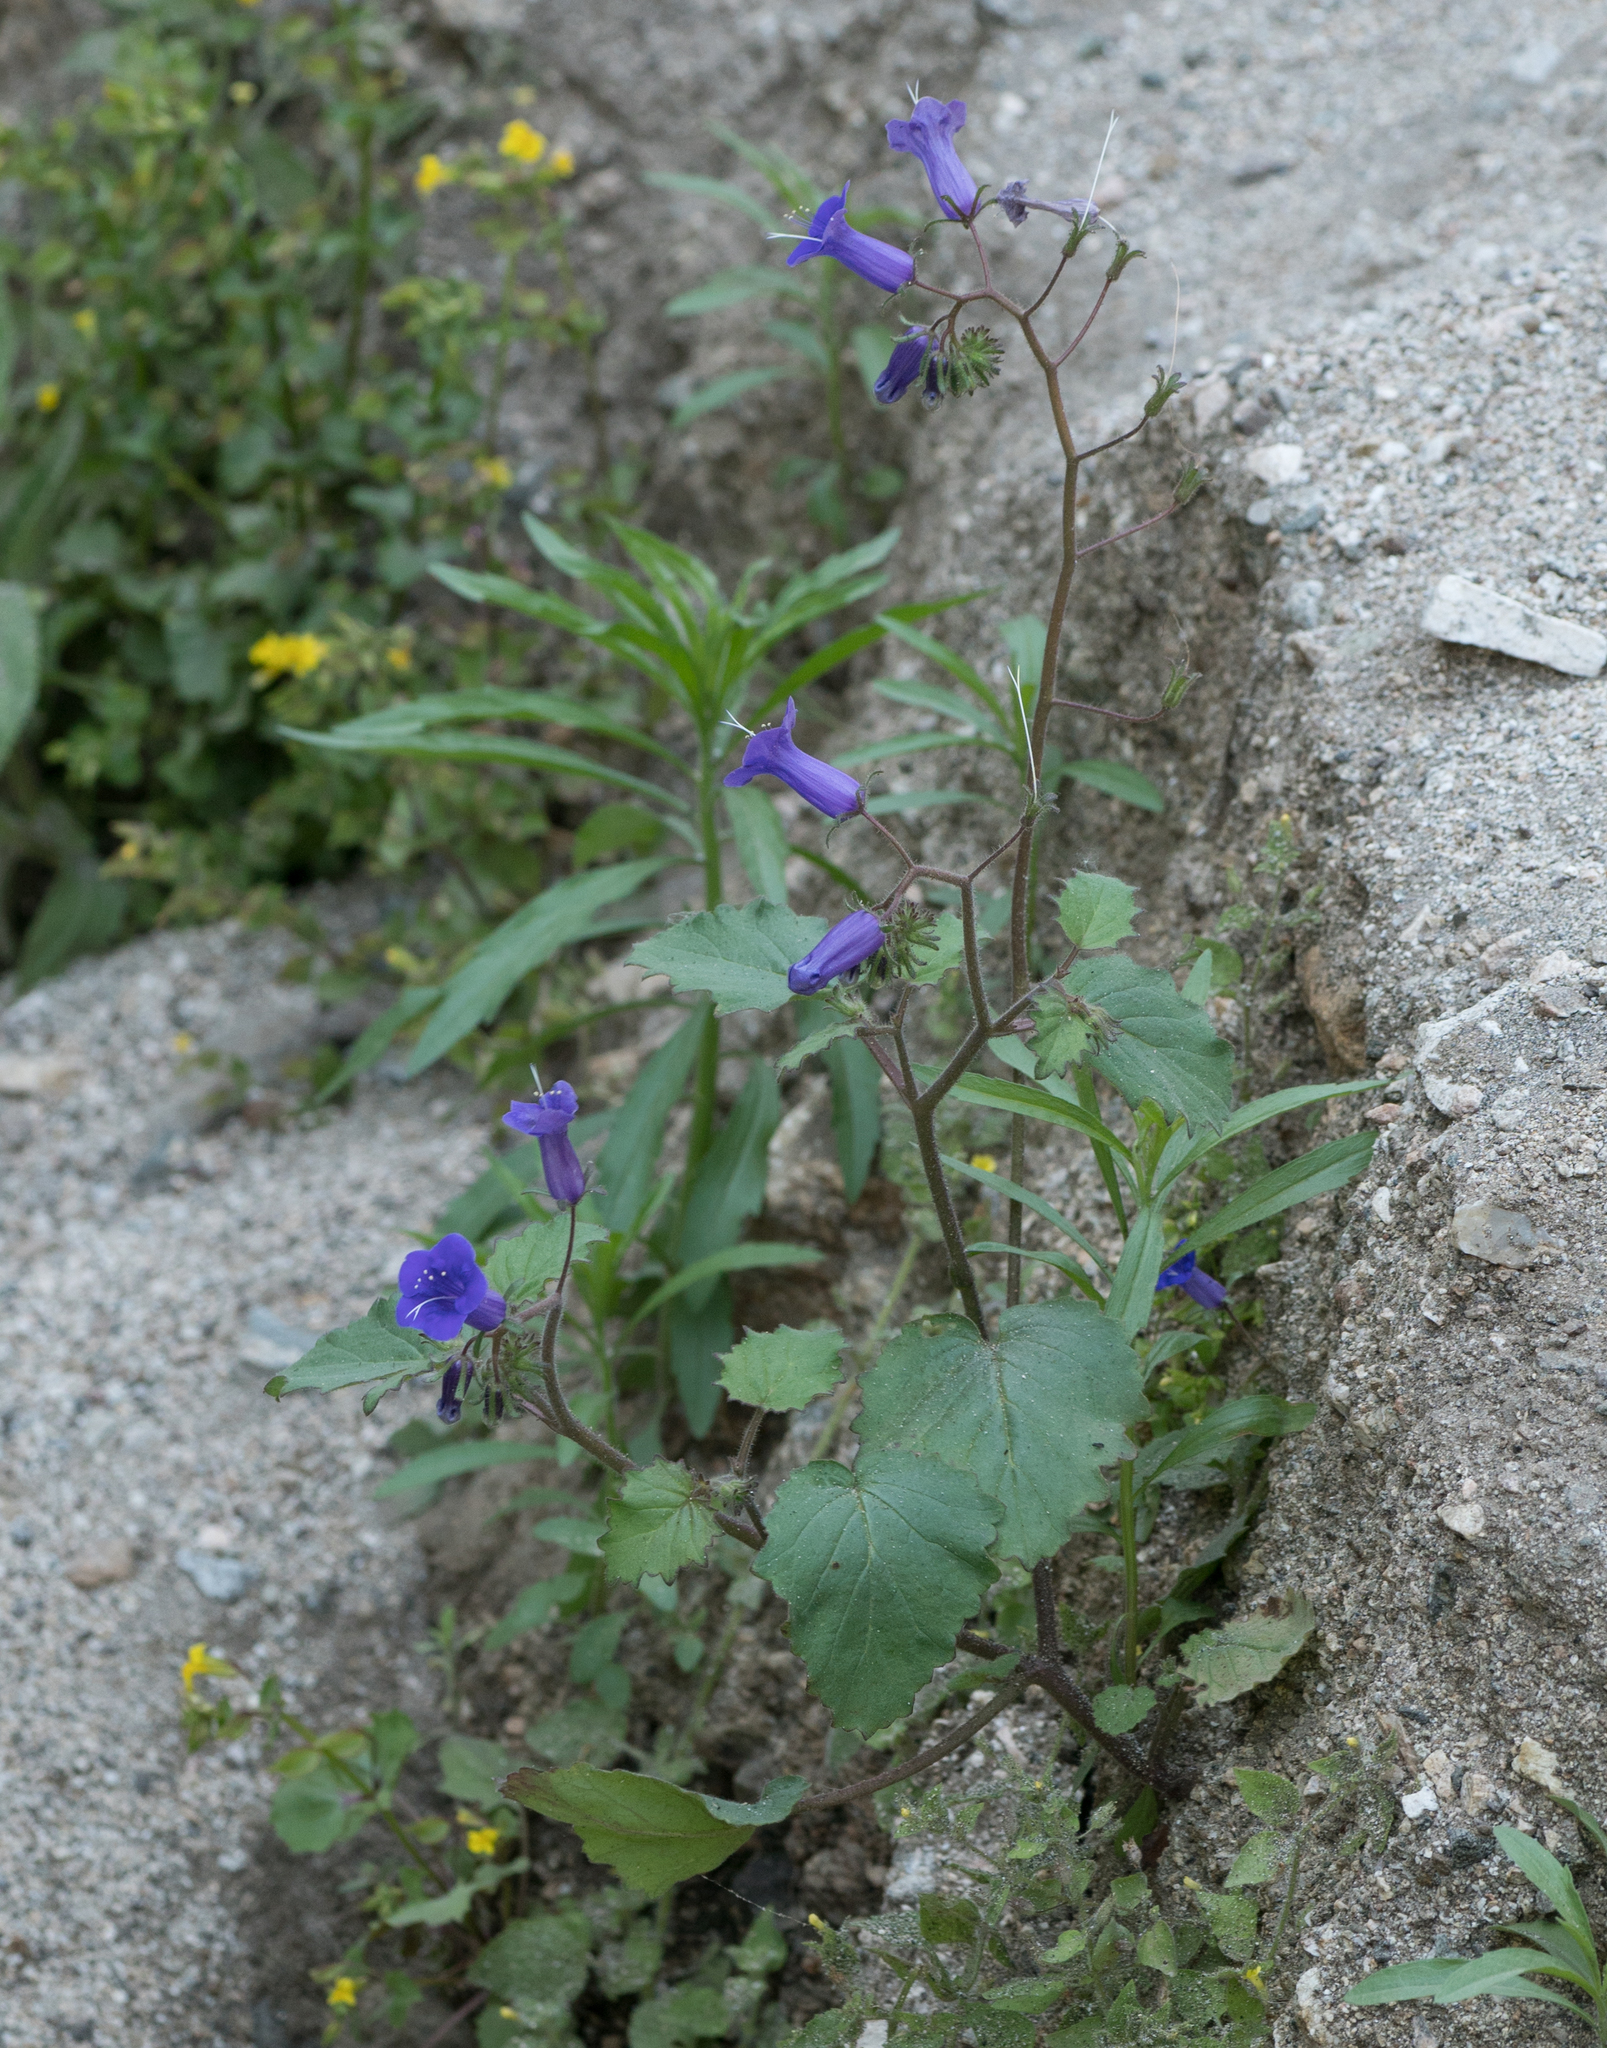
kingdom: Plantae
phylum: Tracheophyta
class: Magnoliopsida
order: Boraginales
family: Hydrophyllaceae
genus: Phacelia
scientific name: Phacelia minor
